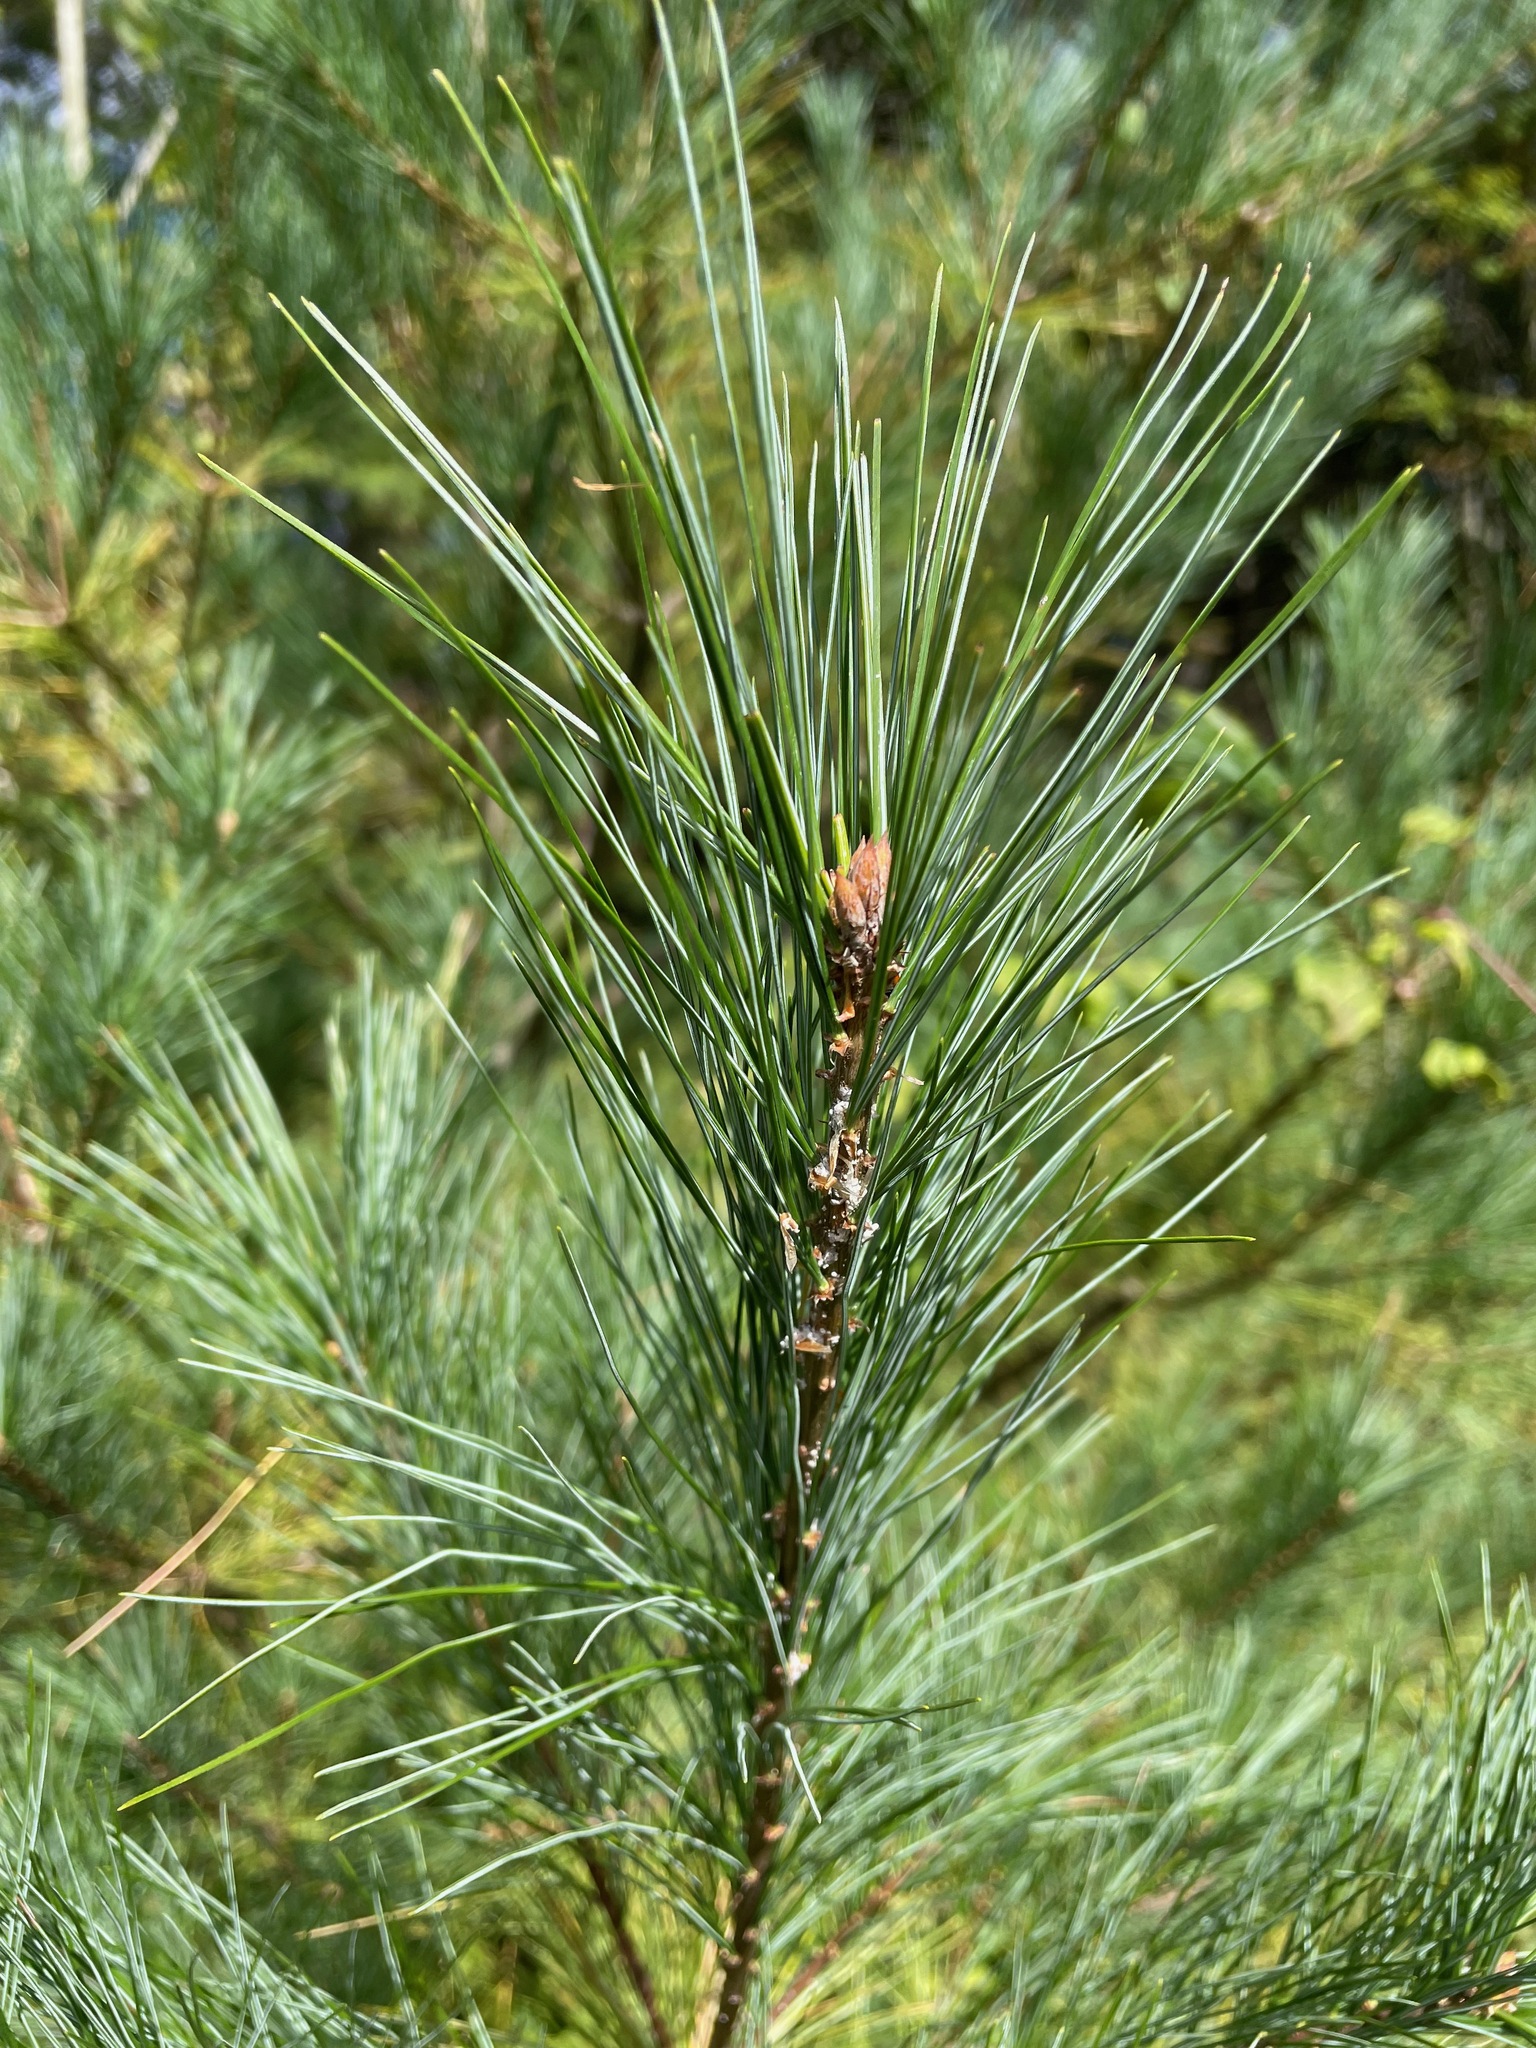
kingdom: Plantae
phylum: Tracheophyta
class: Pinopsida
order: Pinales
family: Pinaceae
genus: Pinus
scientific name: Pinus strobus
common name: Weymouth pine
